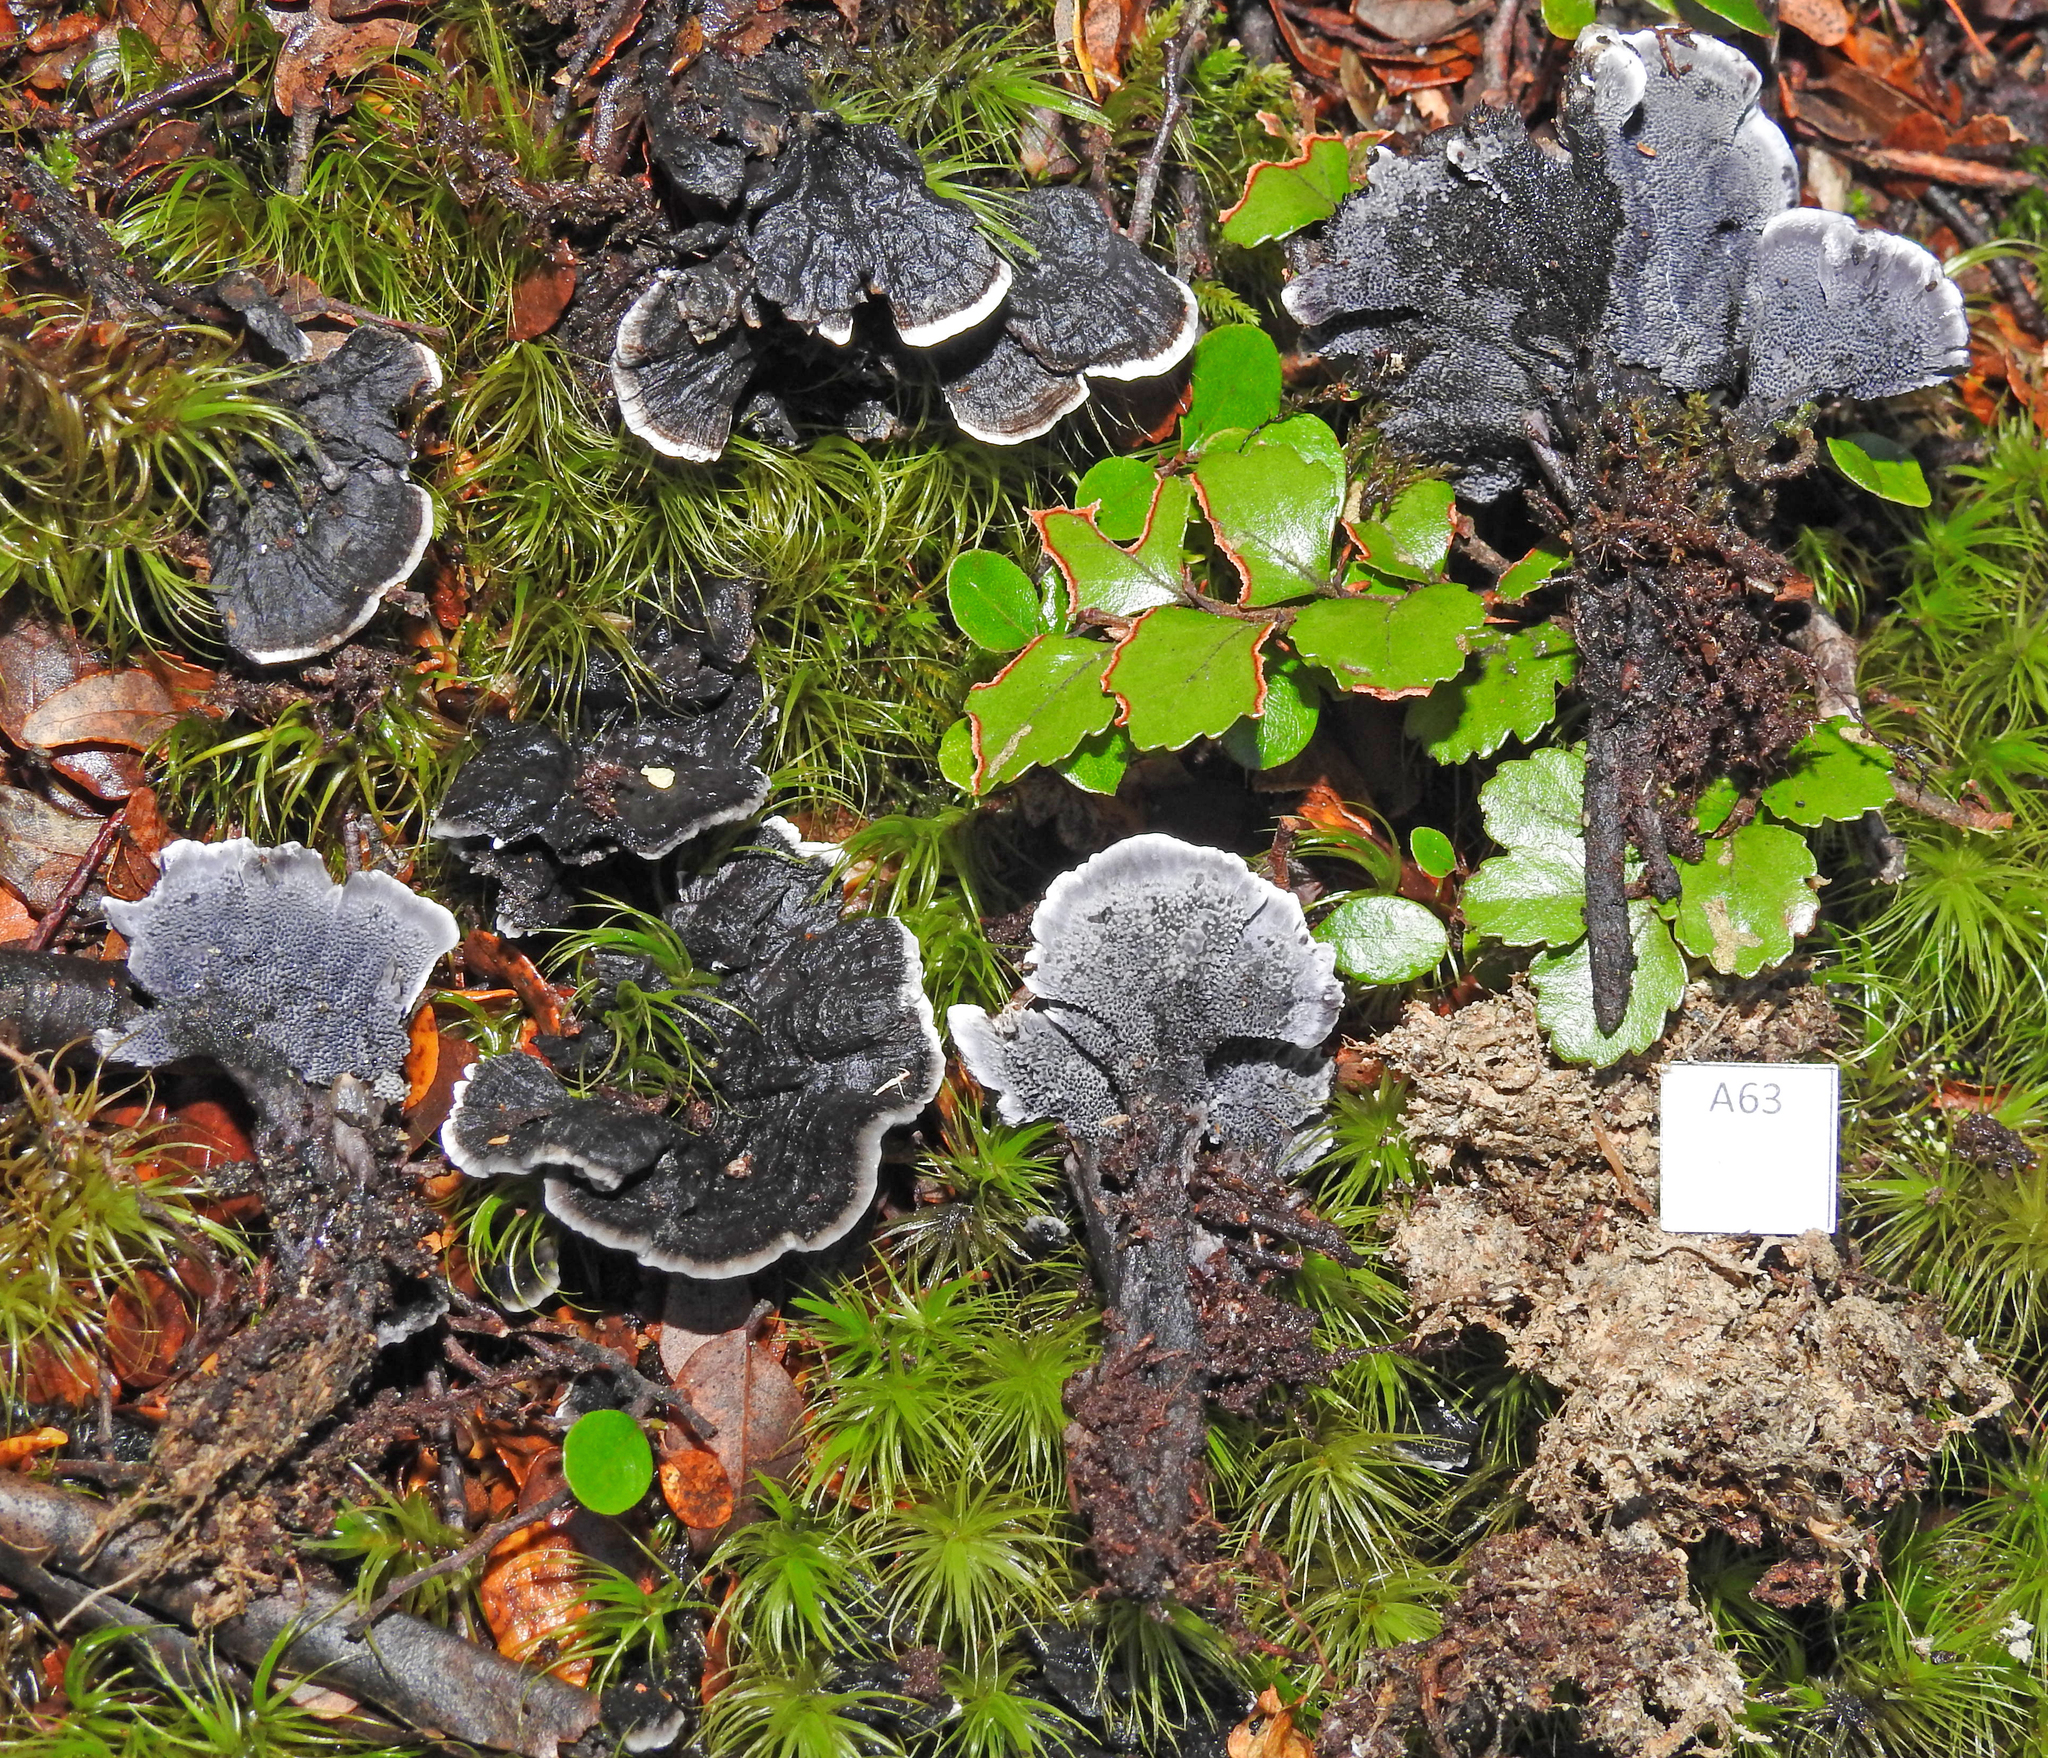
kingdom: Fungi
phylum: Basidiomycota
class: Agaricomycetes
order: Thelephorales
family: Thelephoraceae
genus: Phellodon
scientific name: Phellodon sinclairii
